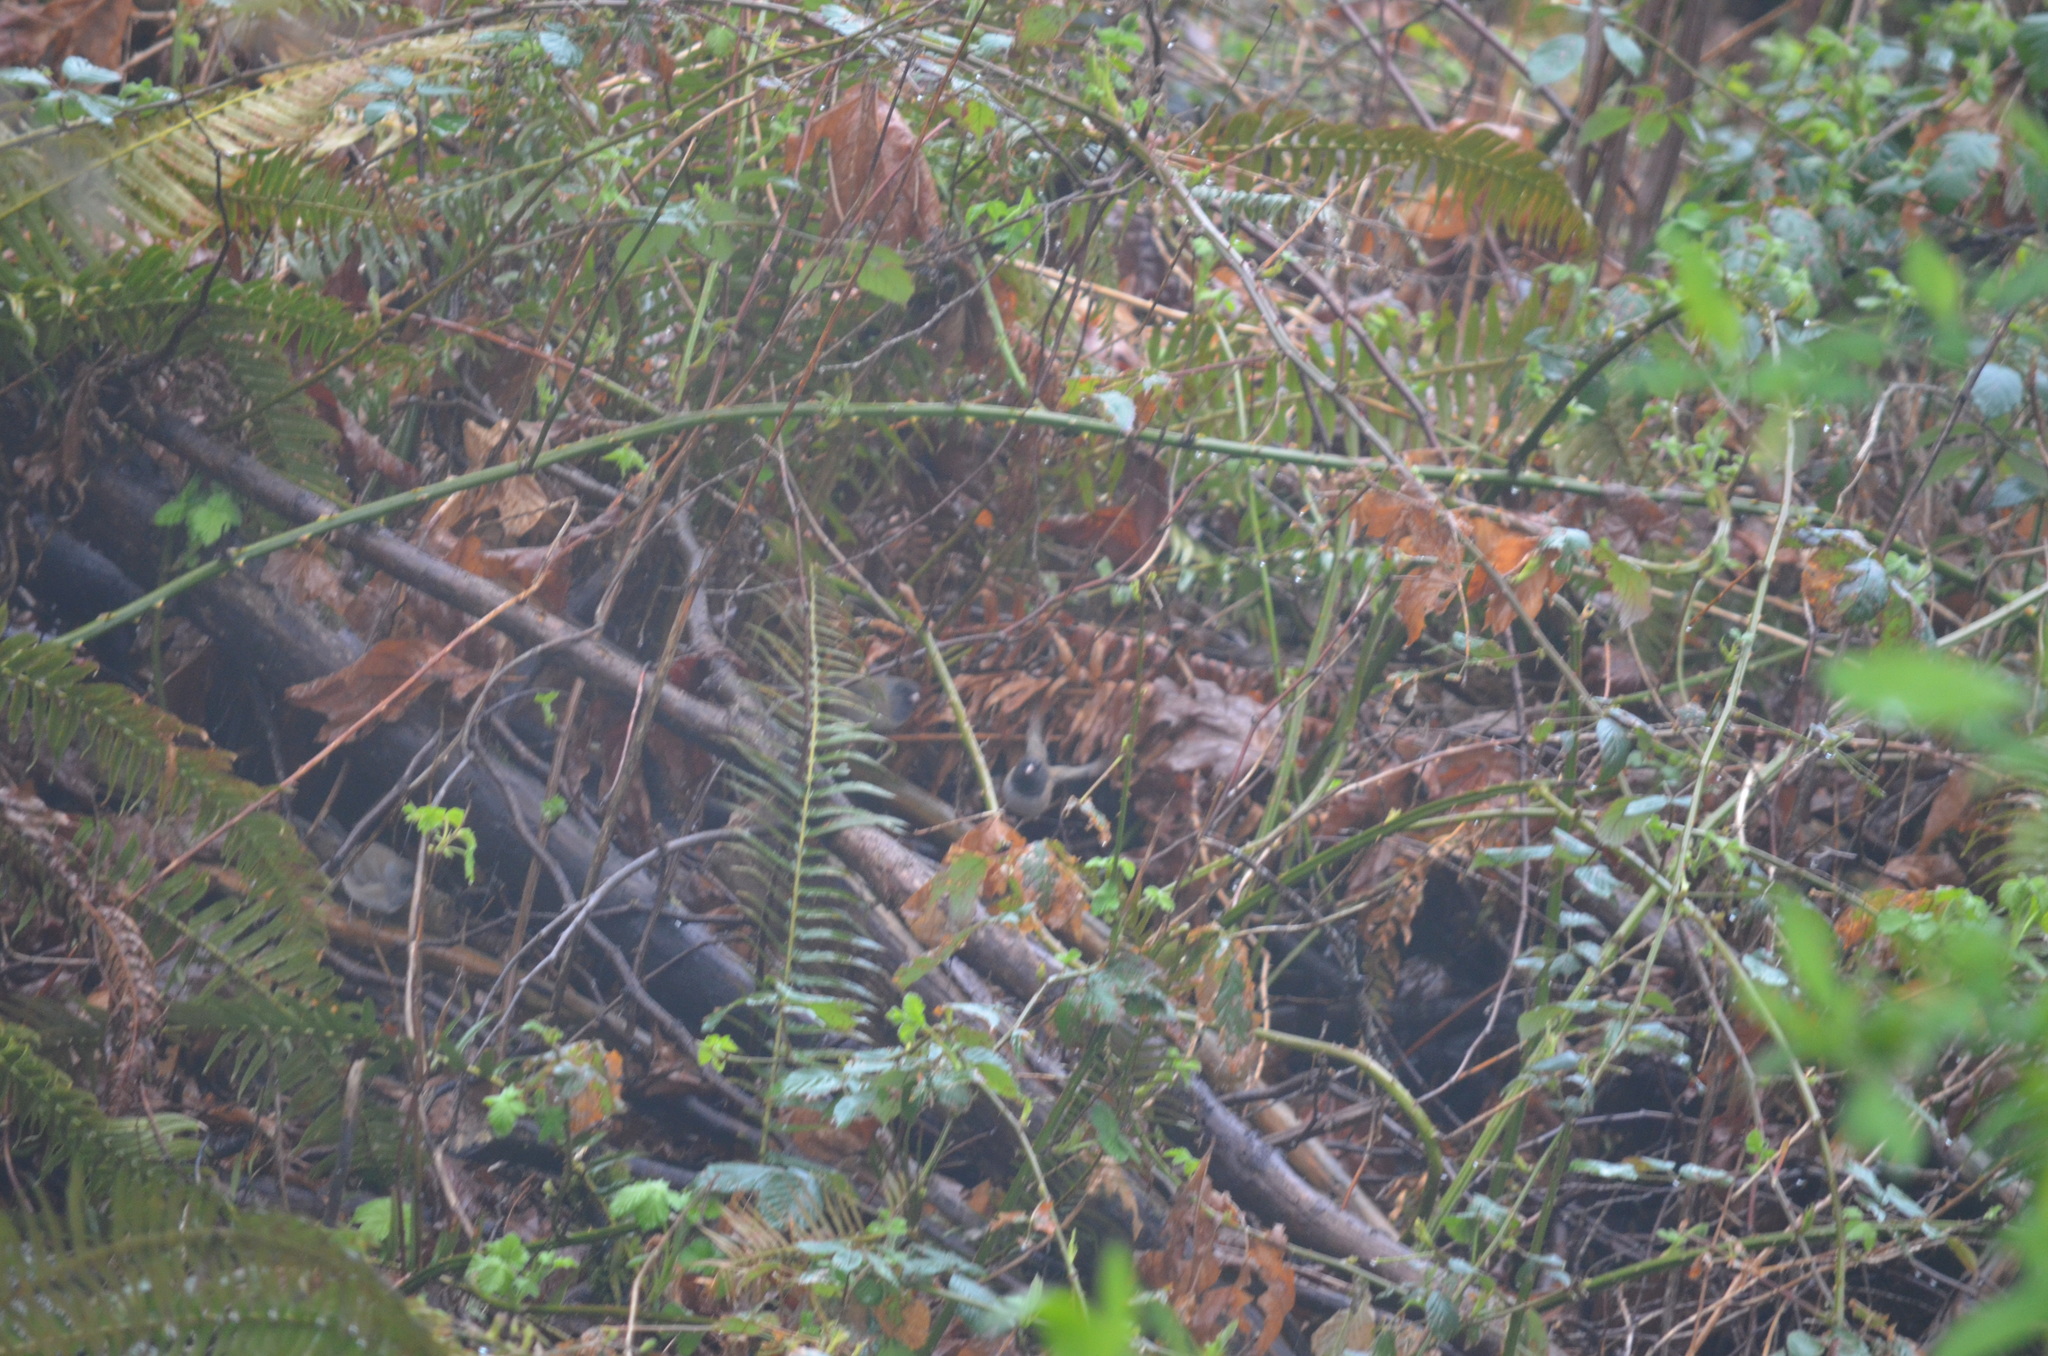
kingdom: Animalia
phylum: Chordata
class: Aves
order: Passeriformes
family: Passerellidae
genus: Junco
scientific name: Junco hyemalis
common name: Dark-eyed junco
